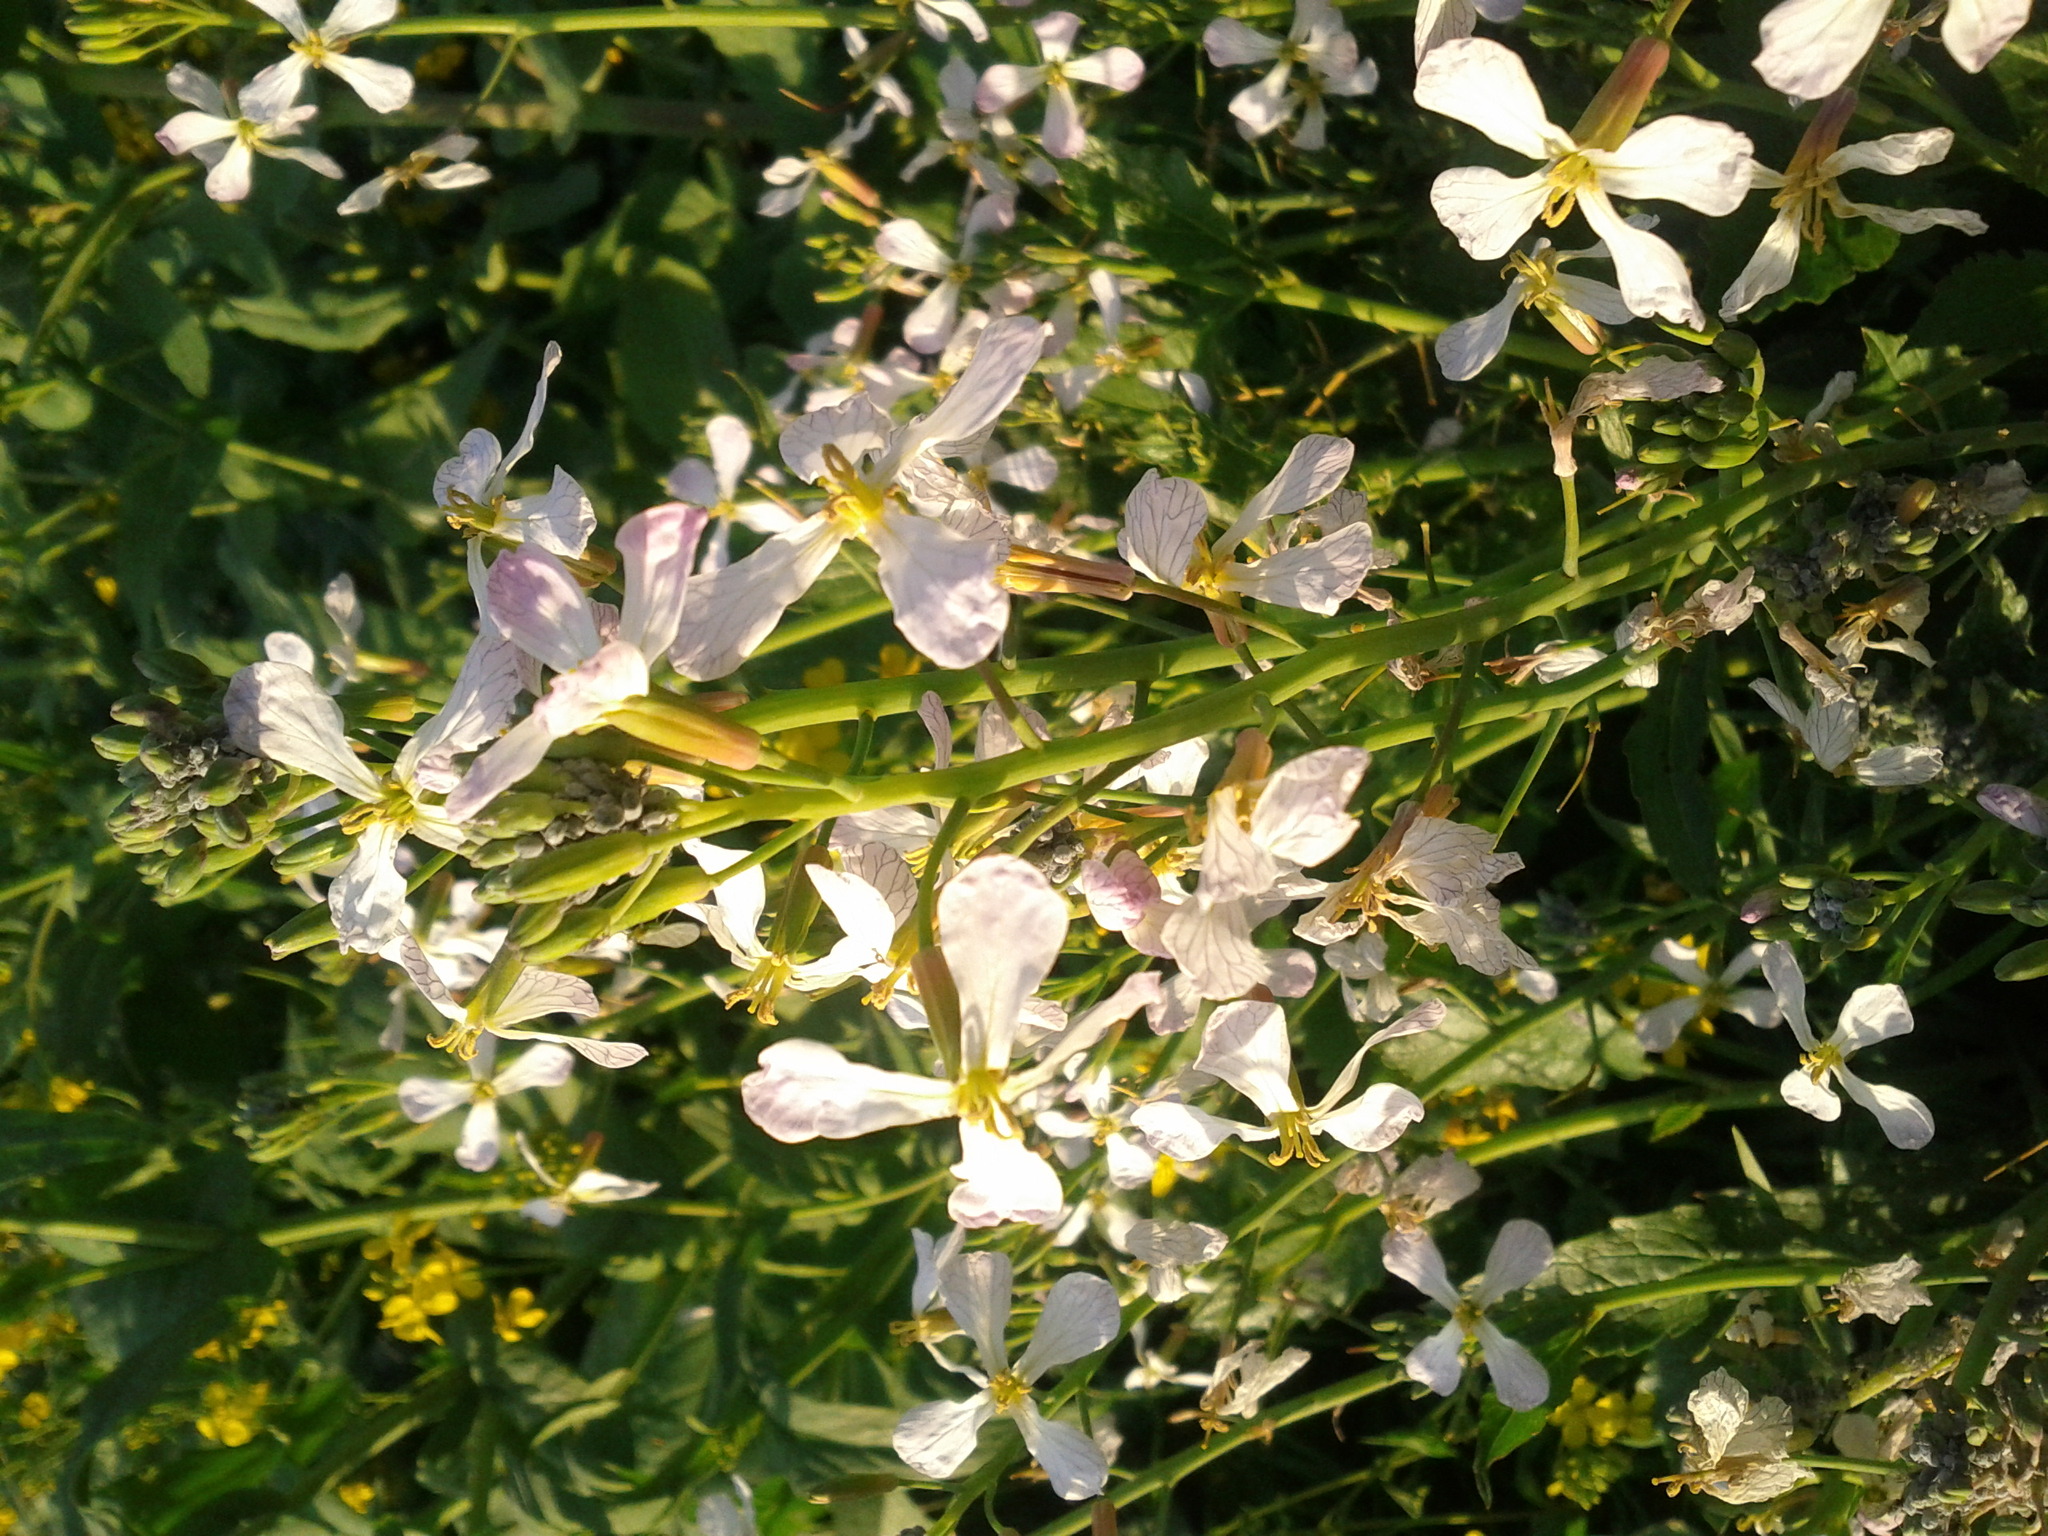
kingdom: Plantae
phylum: Tracheophyta
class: Magnoliopsida
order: Brassicales
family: Brassicaceae
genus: Raphanus
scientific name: Raphanus raphanistrum
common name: Wild radish
